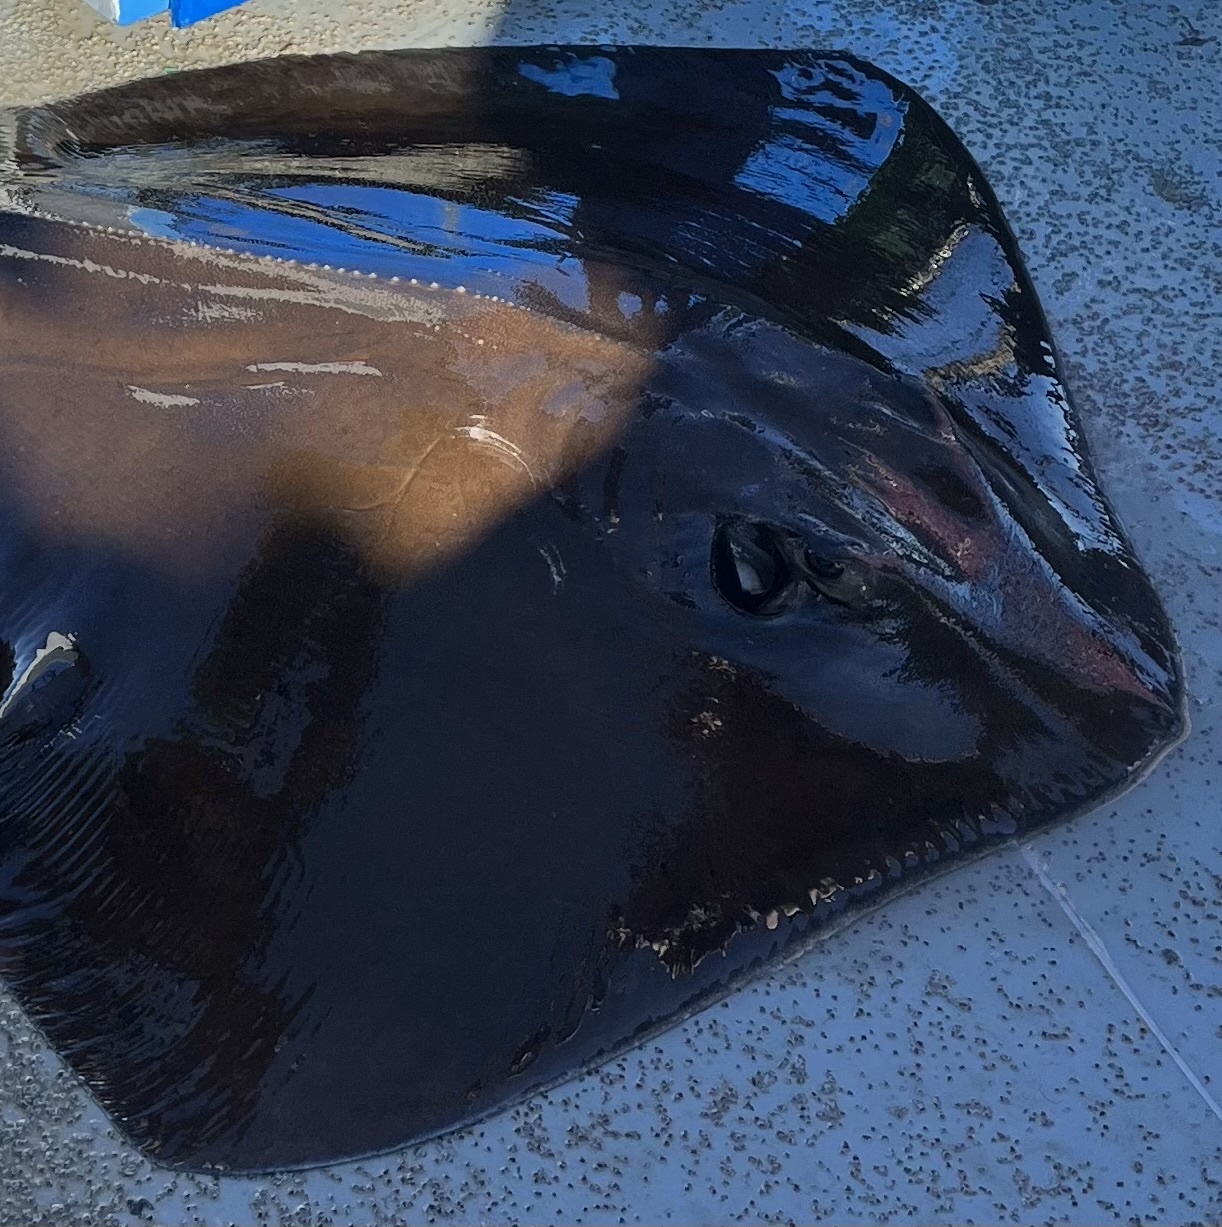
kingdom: Animalia
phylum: Chordata
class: Elasmobranchii
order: Myliobatiformes
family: Dasyatidae
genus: Hypanus
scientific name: Hypanus americanus
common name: Southern stingray
